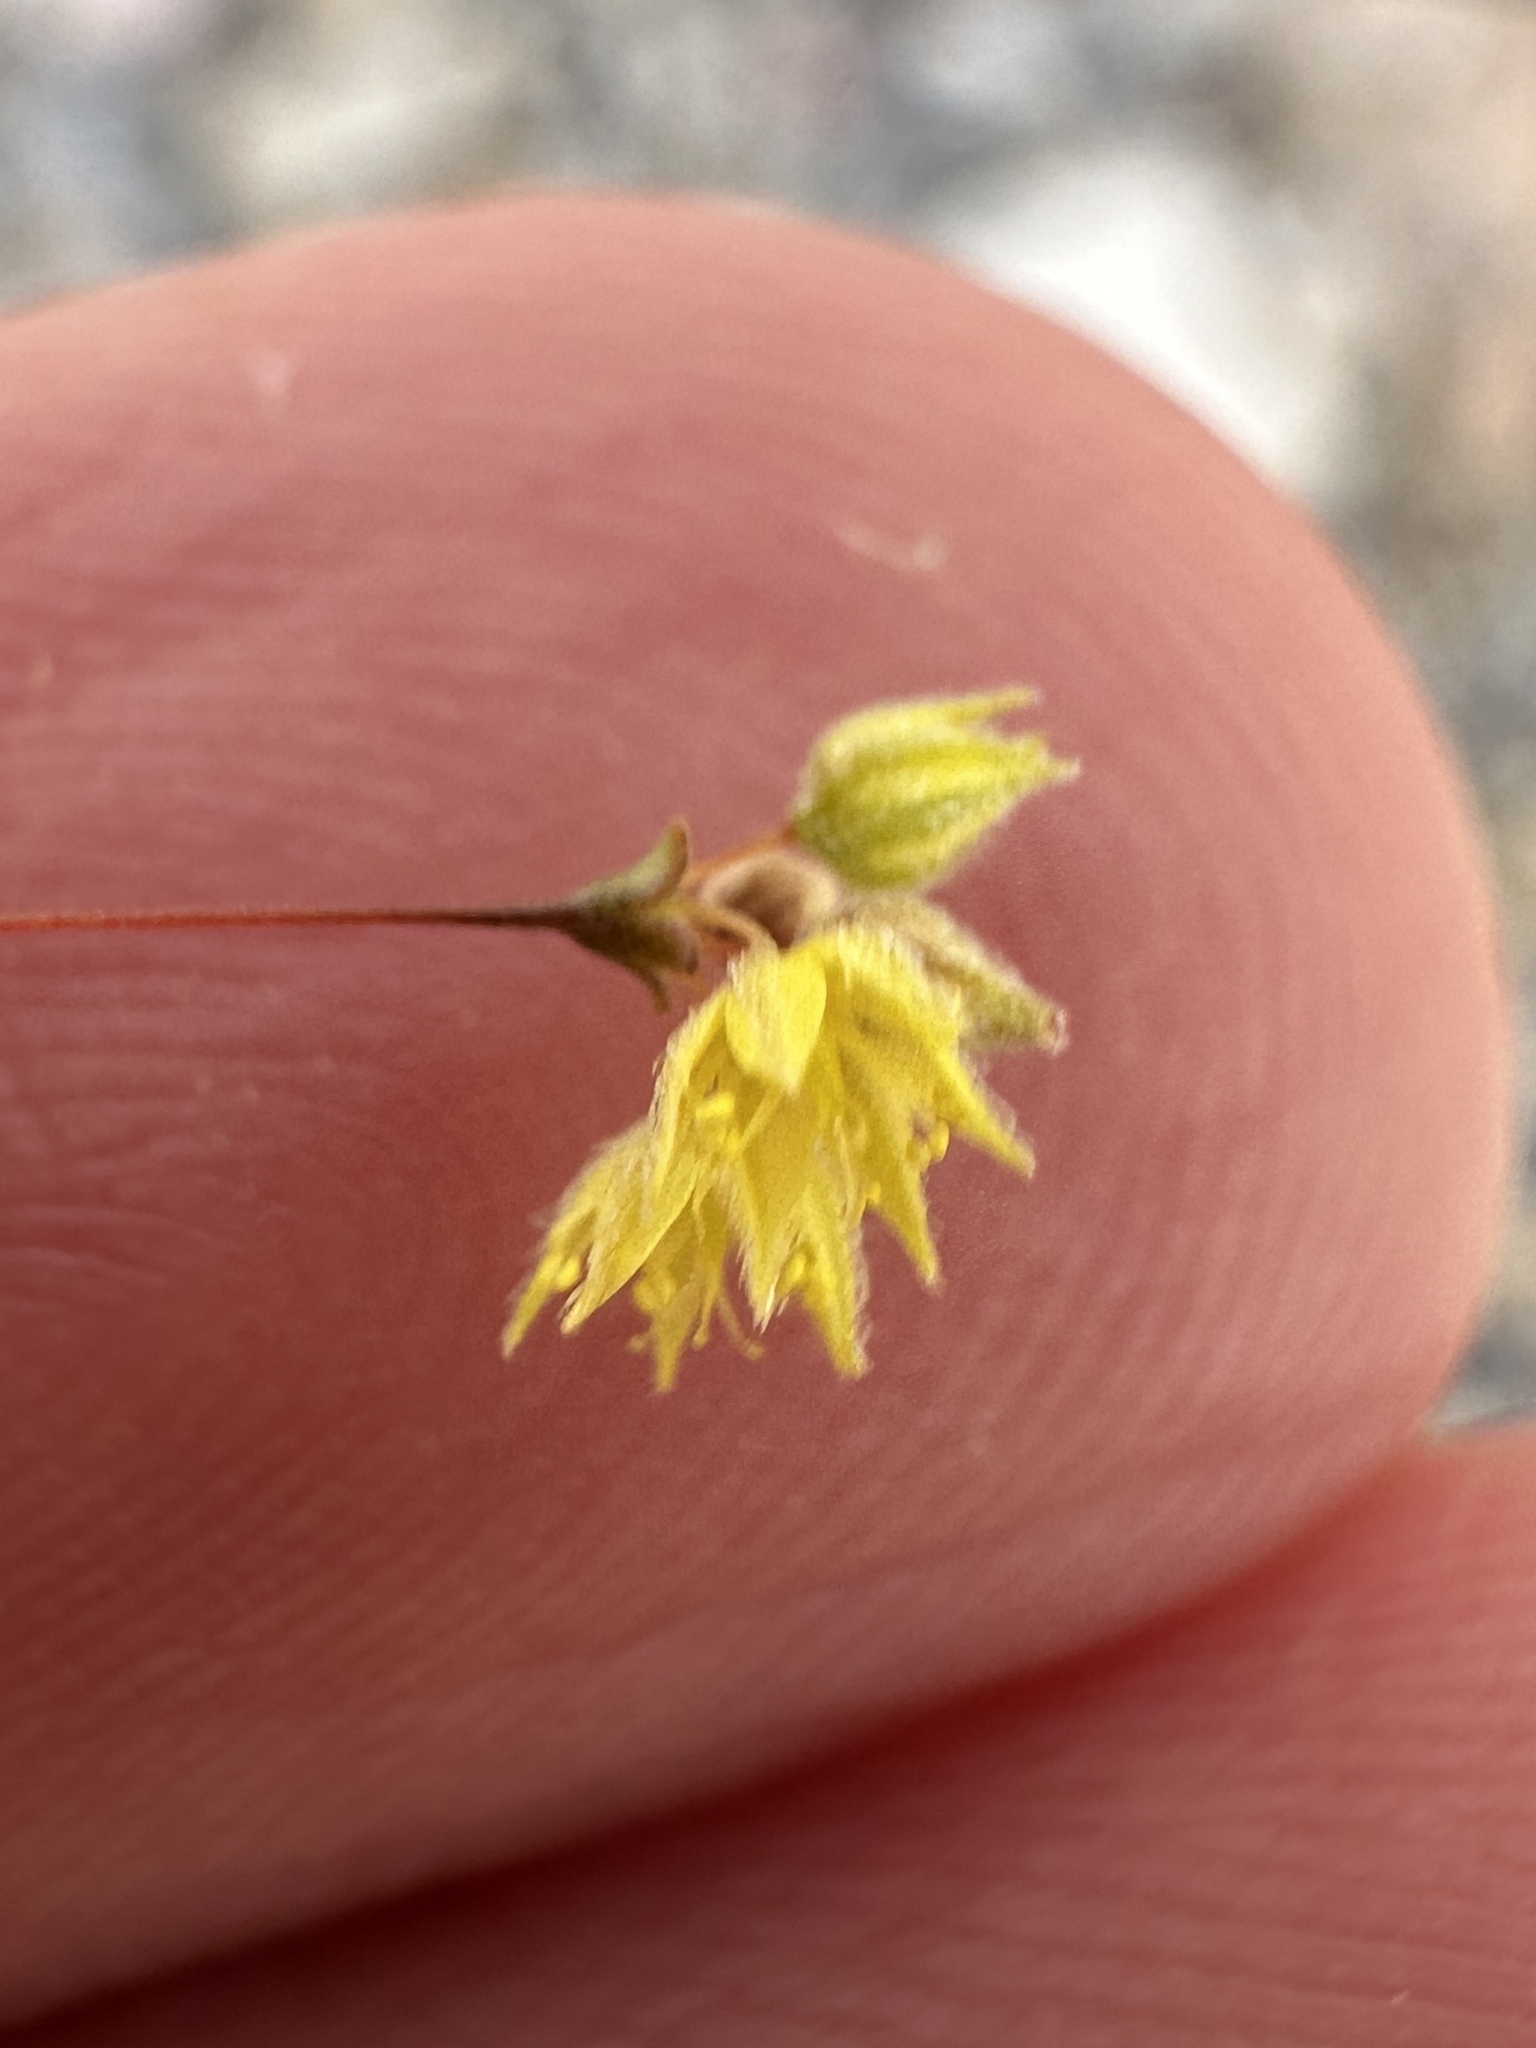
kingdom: Plantae
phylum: Tracheophyta
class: Magnoliopsida
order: Caryophyllales
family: Polygonaceae
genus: Eriogonum
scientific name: Eriogonum inflatum
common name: Desert trumpet
